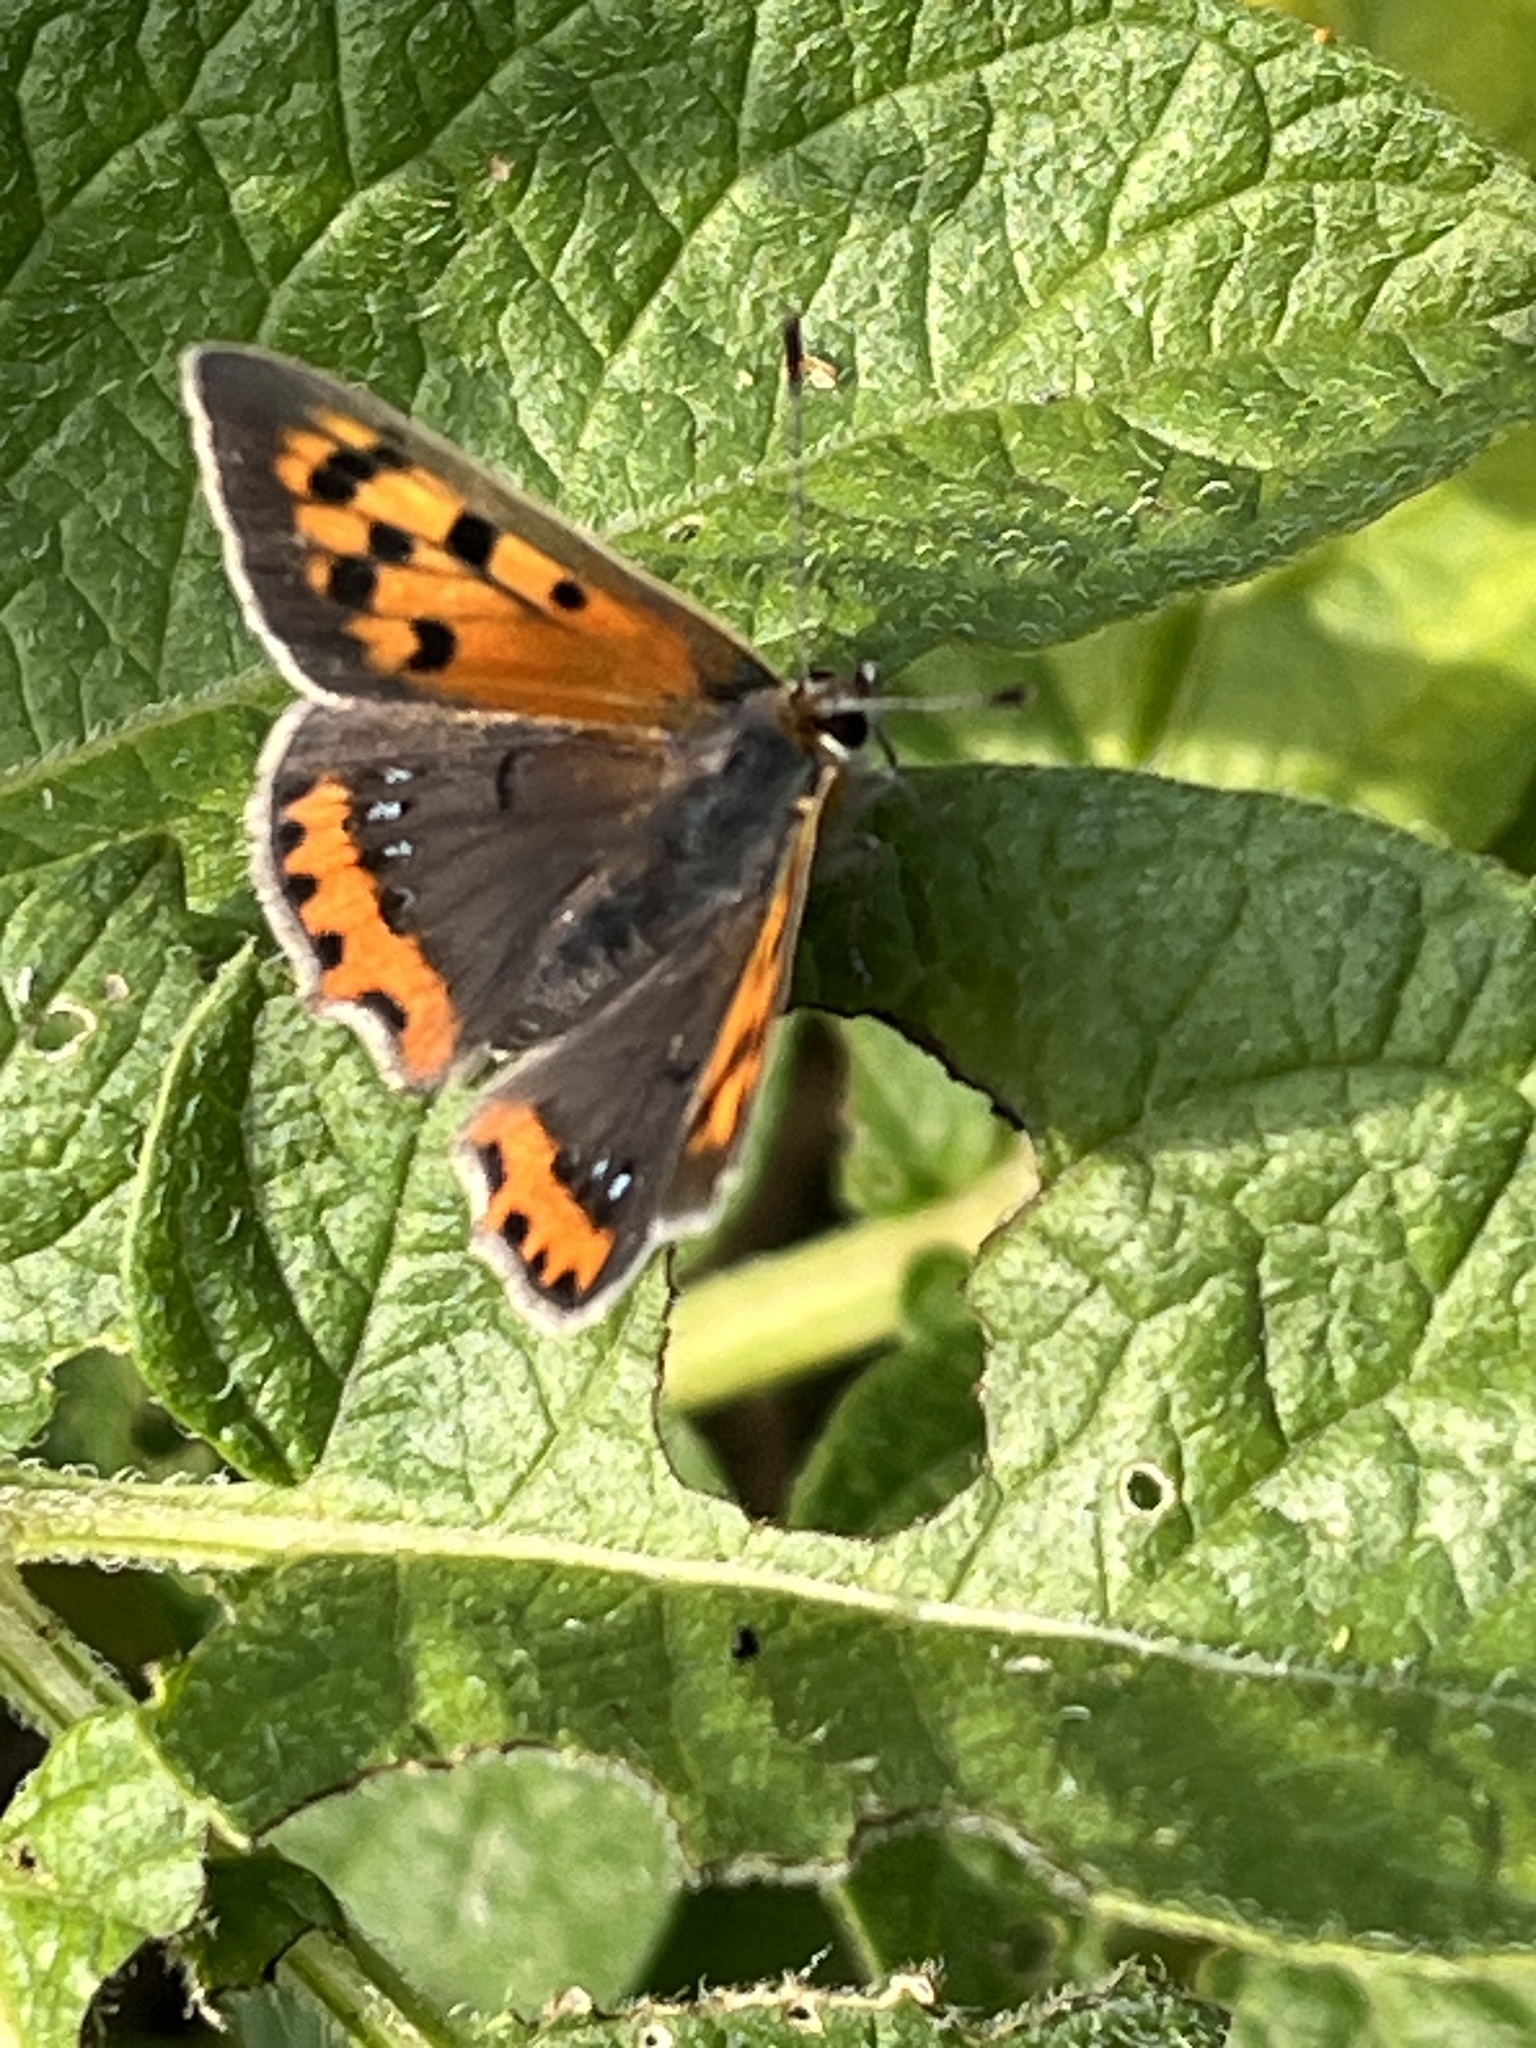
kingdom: Animalia
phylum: Arthropoda
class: Insecta
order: Lepidoptera
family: Lycaenidae
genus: Lycaena
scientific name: Lycaena phlaeas
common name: Small copper
